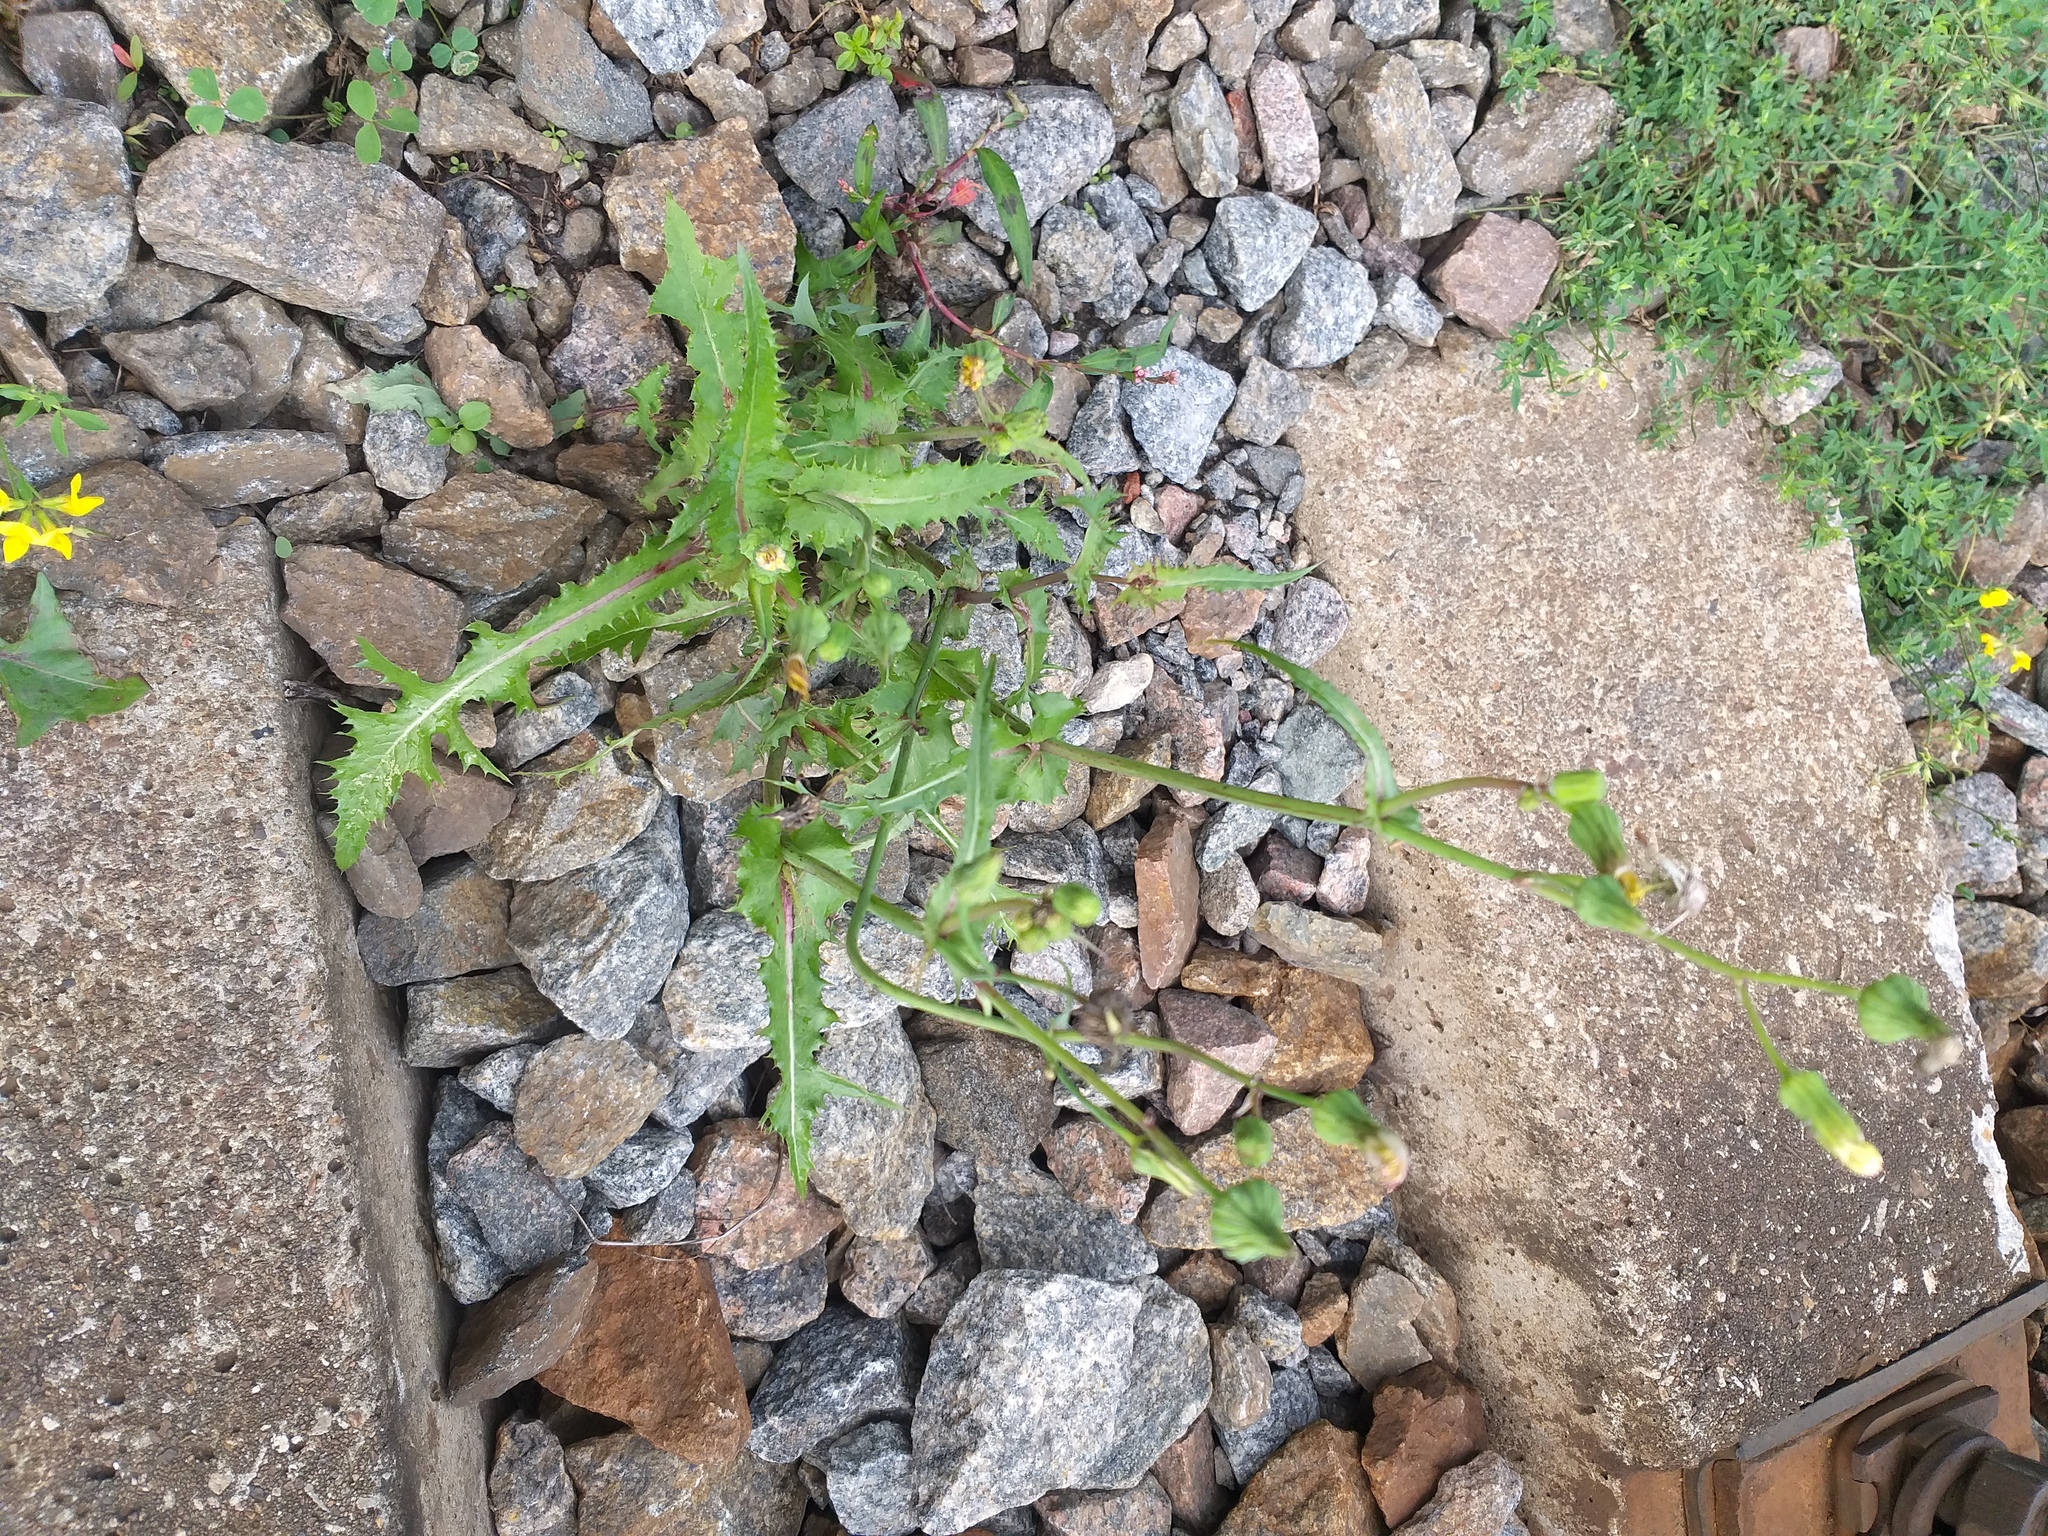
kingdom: Plantae
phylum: Tracheophyta
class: Magnoliopsida
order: Asterales
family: Asteraceae
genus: Sonchus
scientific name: Sonchus asper
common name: Prickly sow-thistle
